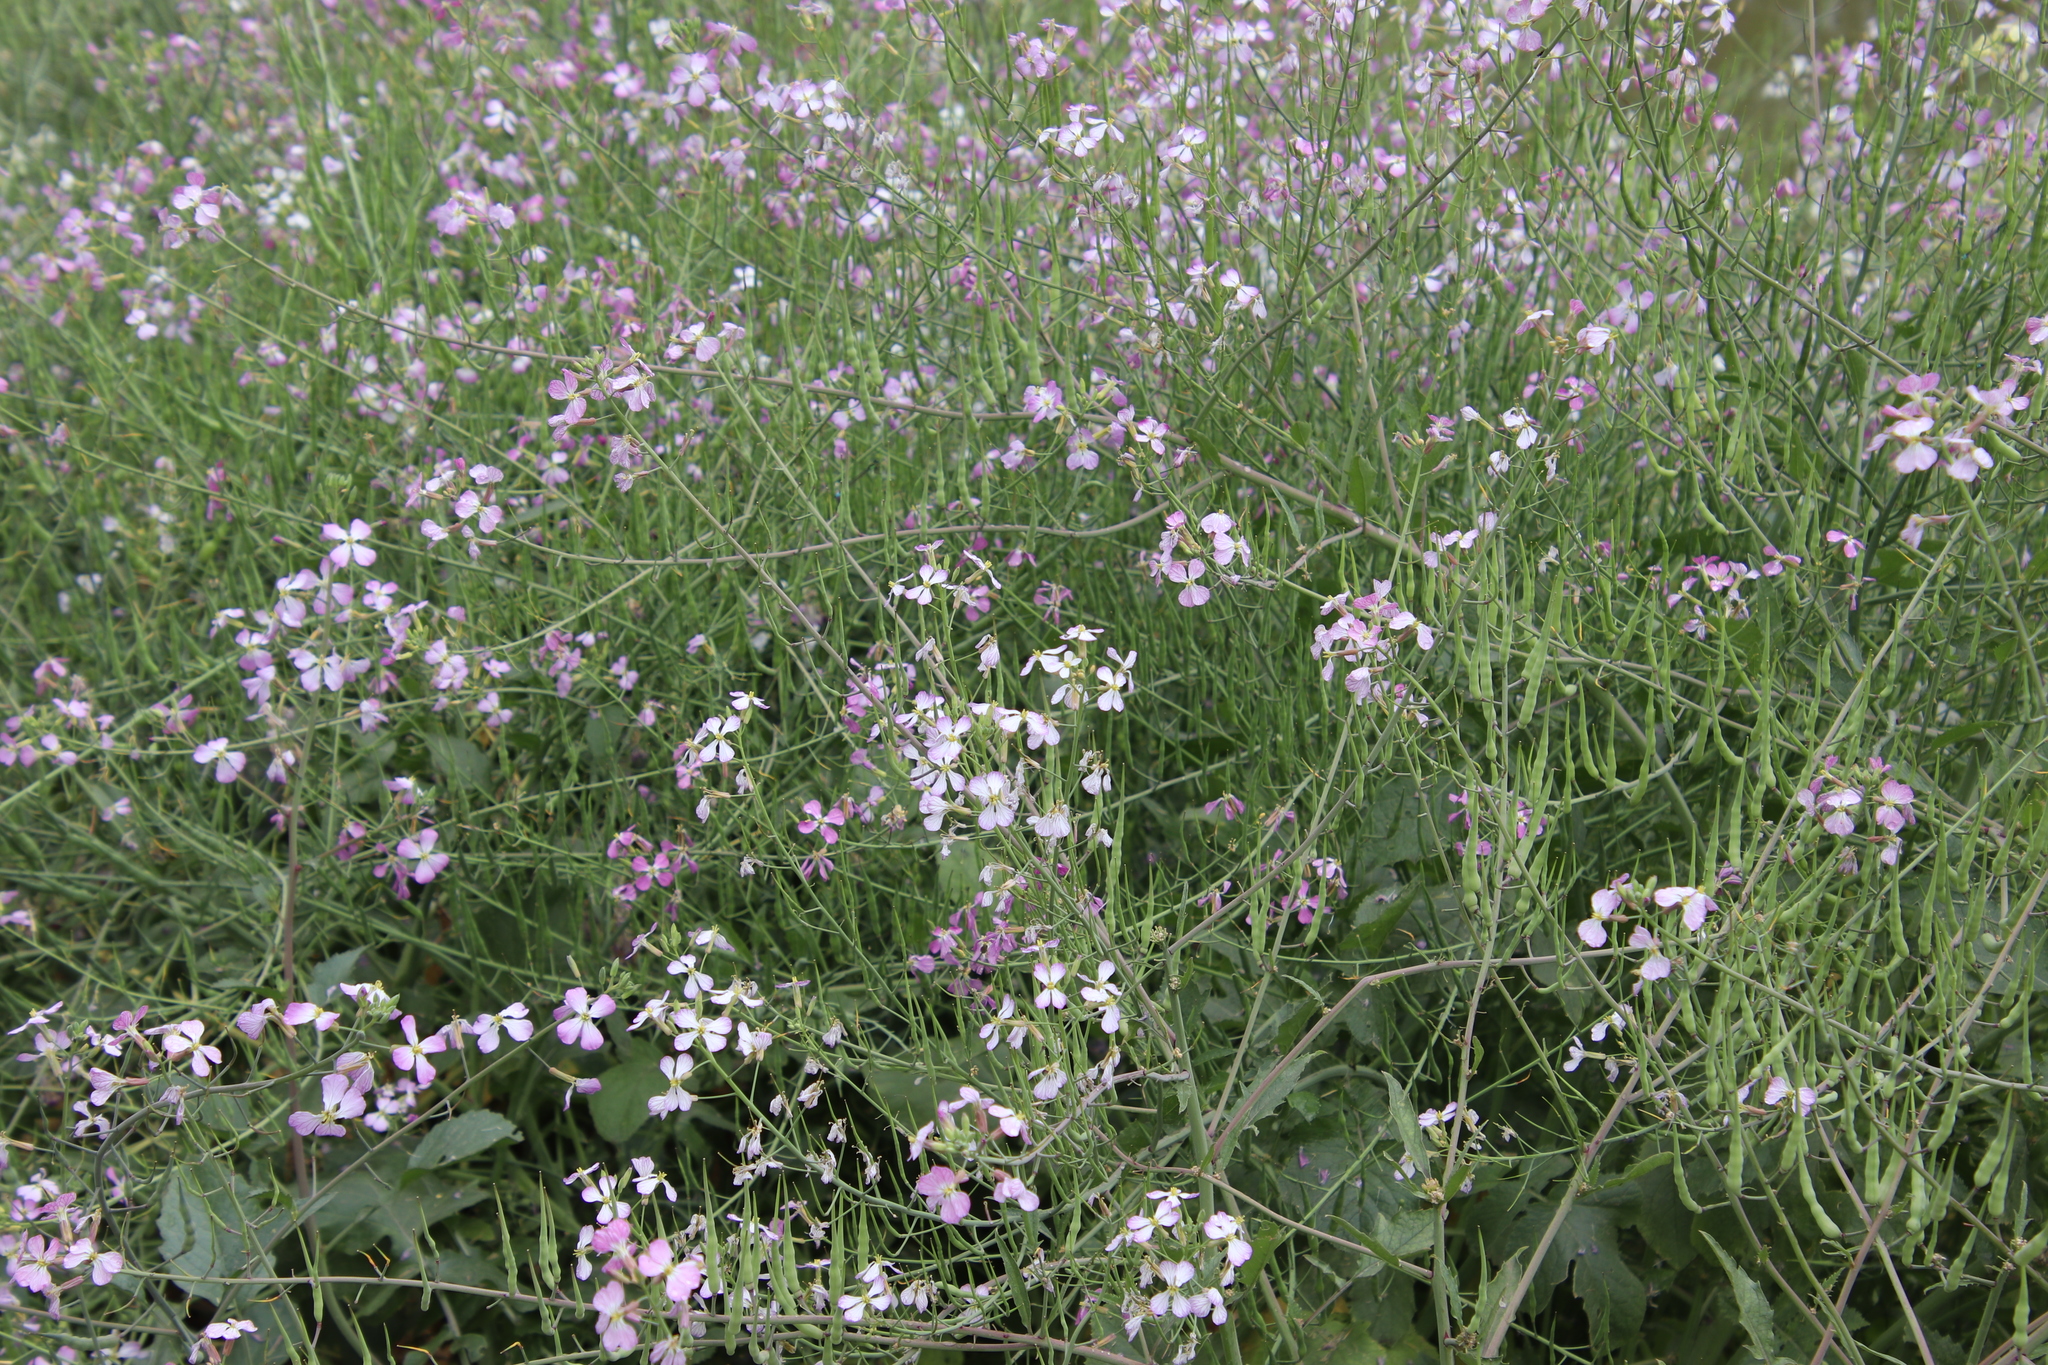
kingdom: Plantae
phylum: Tracheophyta
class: Magnoliopsida
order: Brassicales
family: Brassicaceae
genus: Raphanus
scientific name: Raphanus sativus
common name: Cultivated radish
